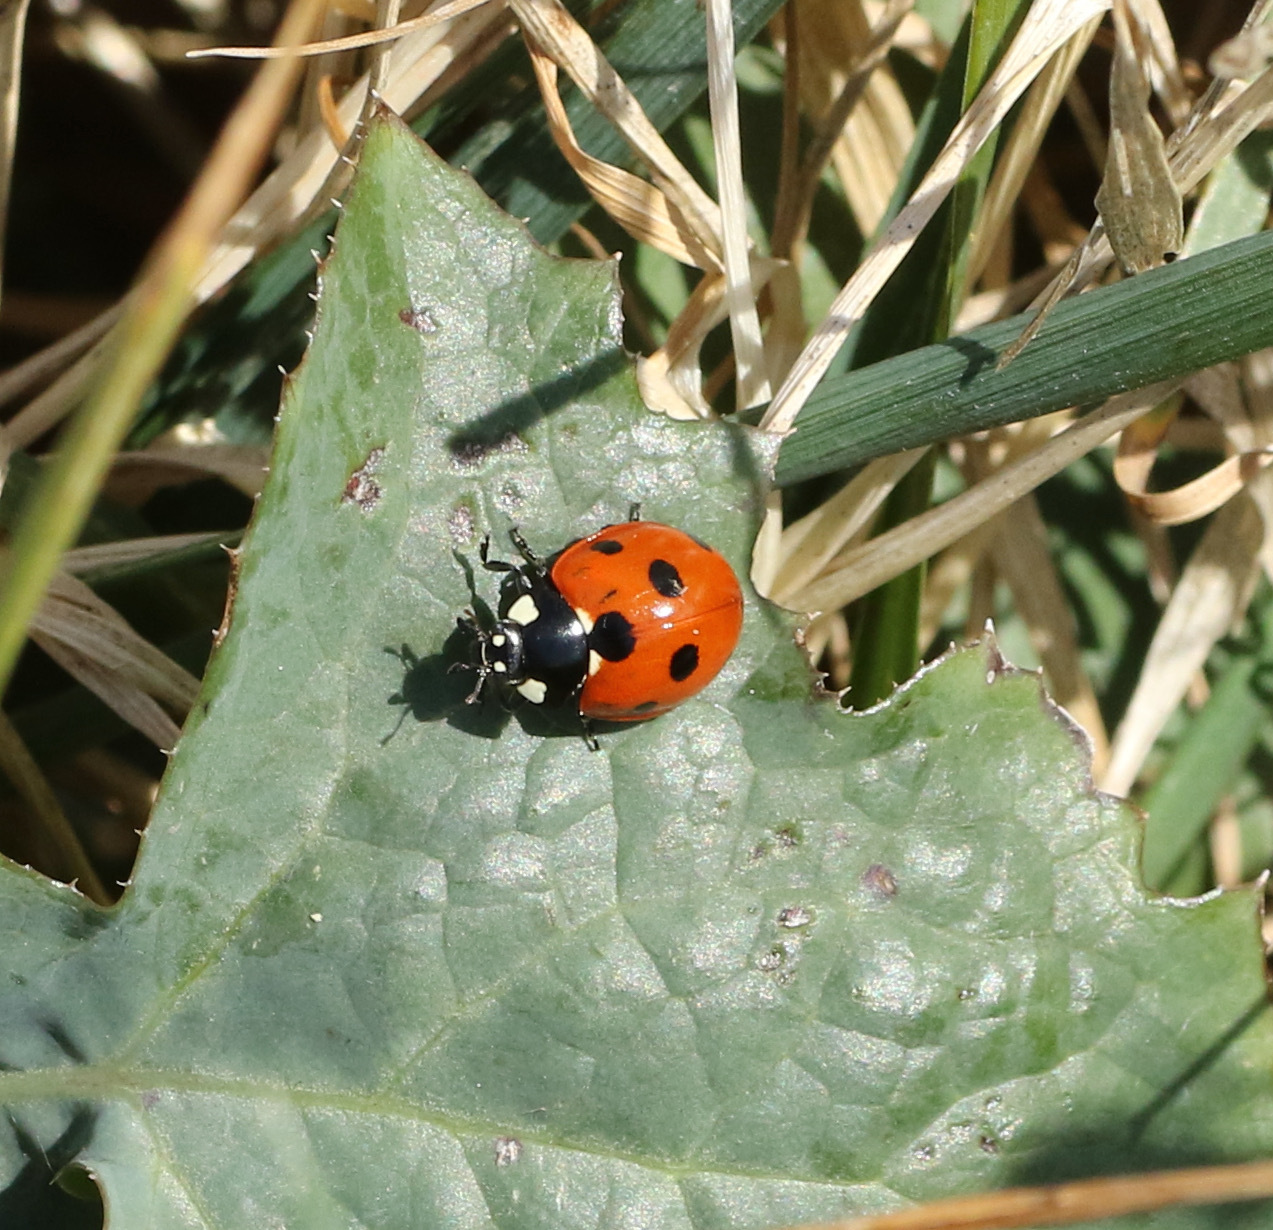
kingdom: Animalia
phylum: Arthropoda
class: Insecta
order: Coleoptera
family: Coccinellidae
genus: Coccinella
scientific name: Coccinella septempunctata
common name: Sevenspotted lady beetle
